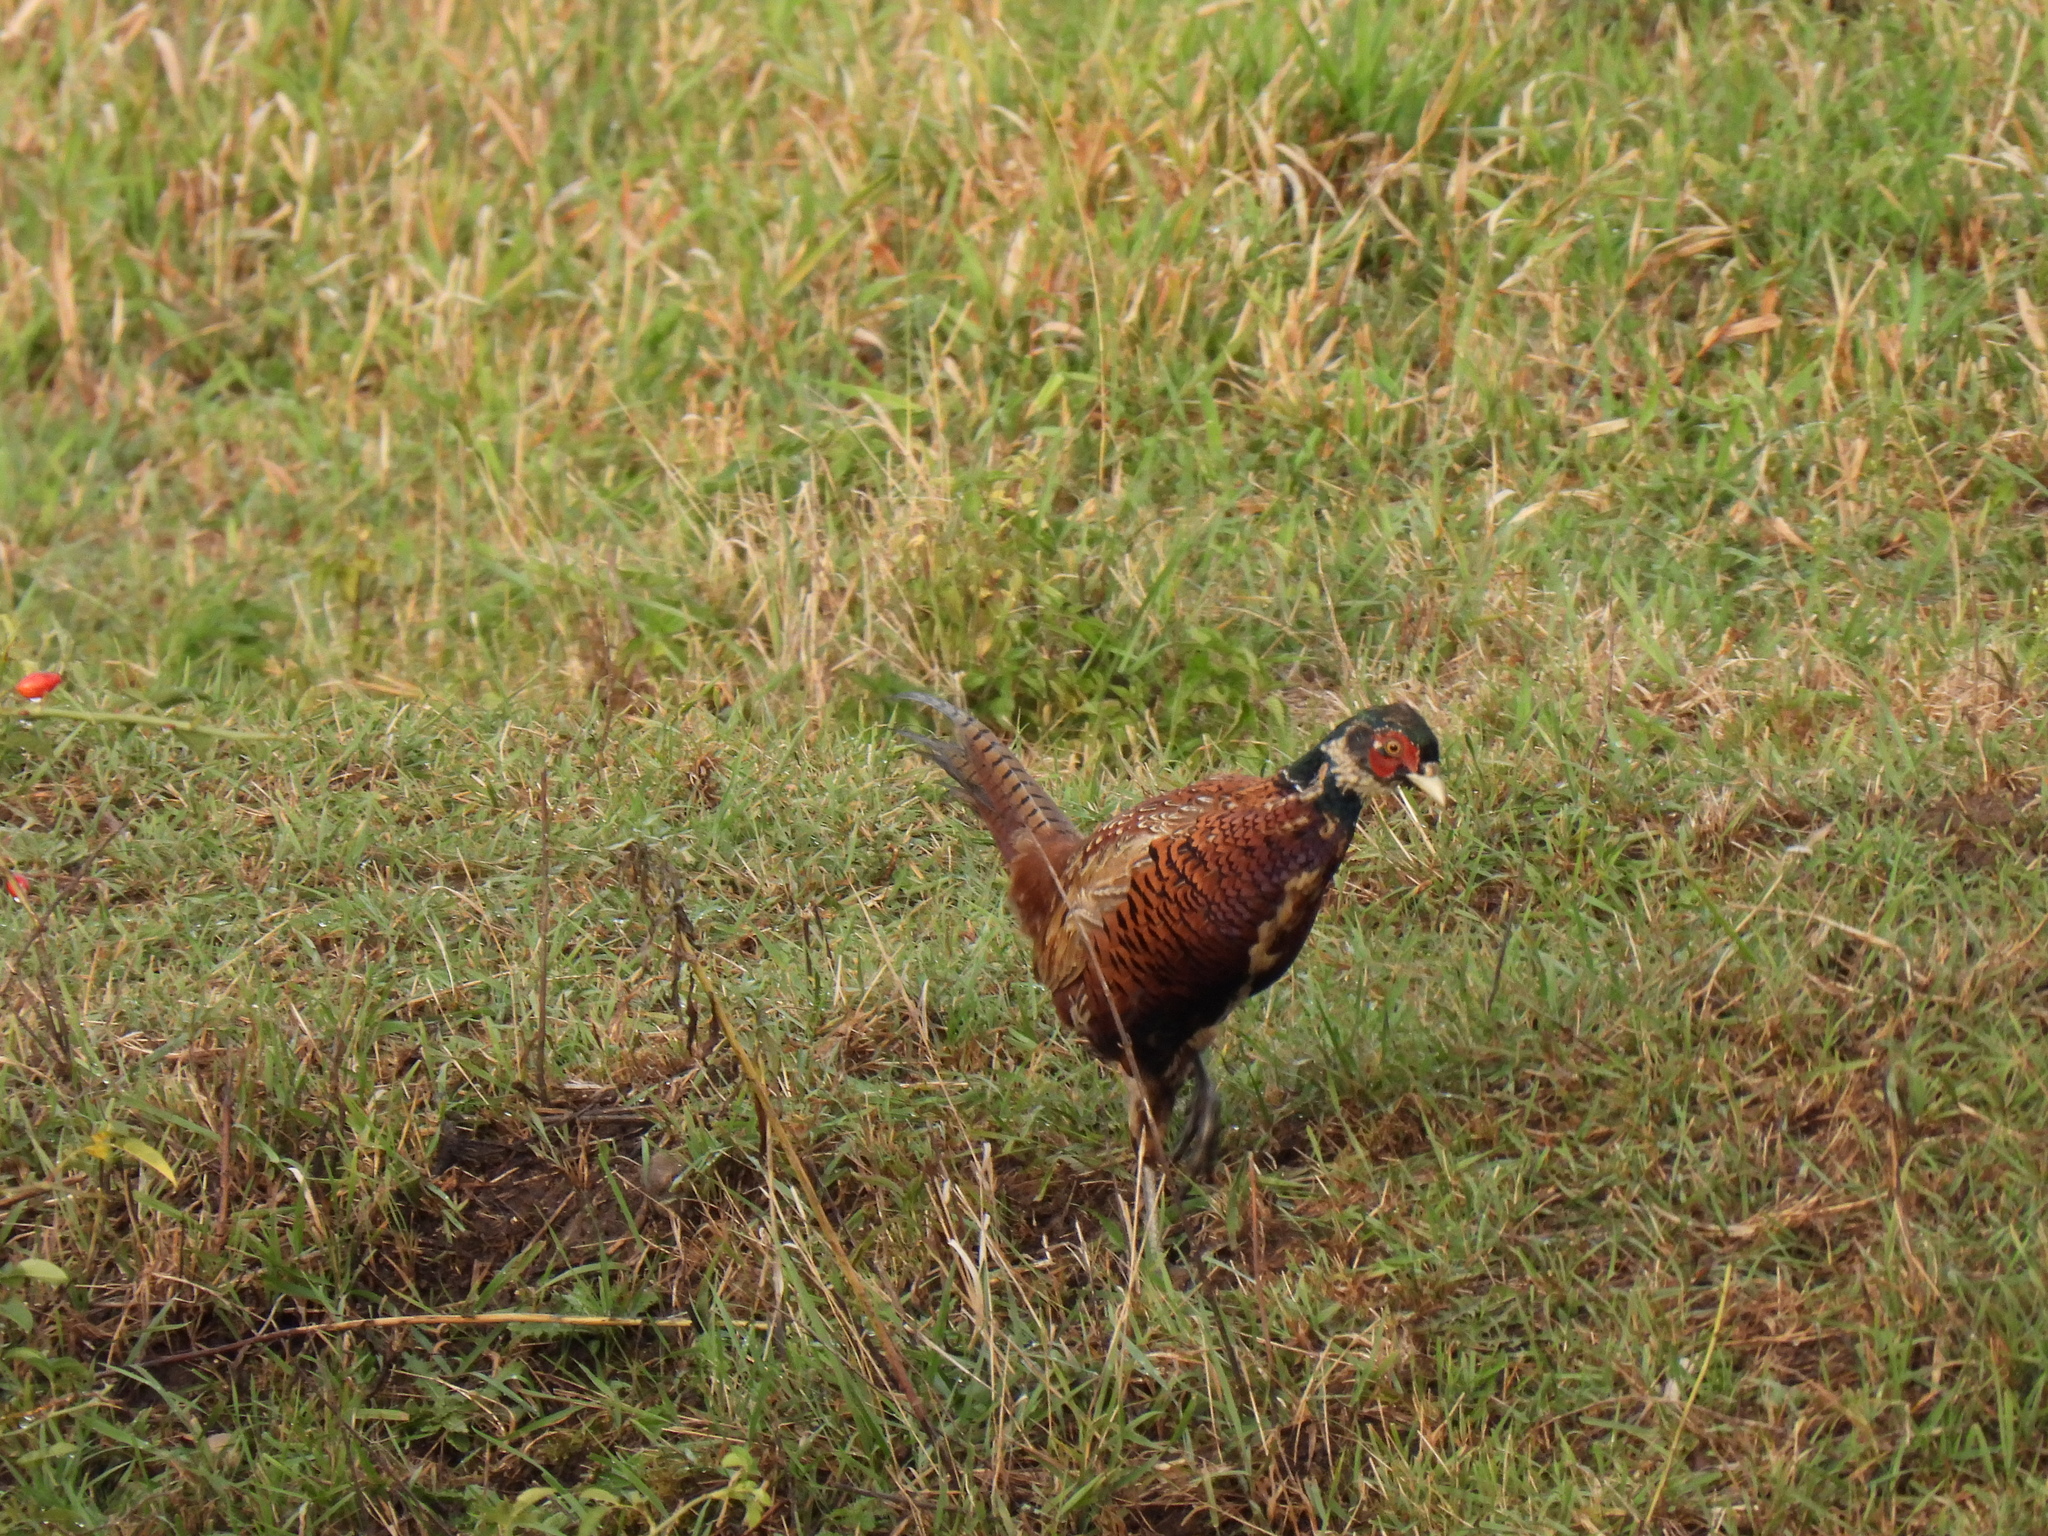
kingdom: Animalia
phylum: Chordata
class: Aves
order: Galliformes
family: Phasianidae
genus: Phasianus
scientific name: Phasianus colchicus
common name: Common pheasant
